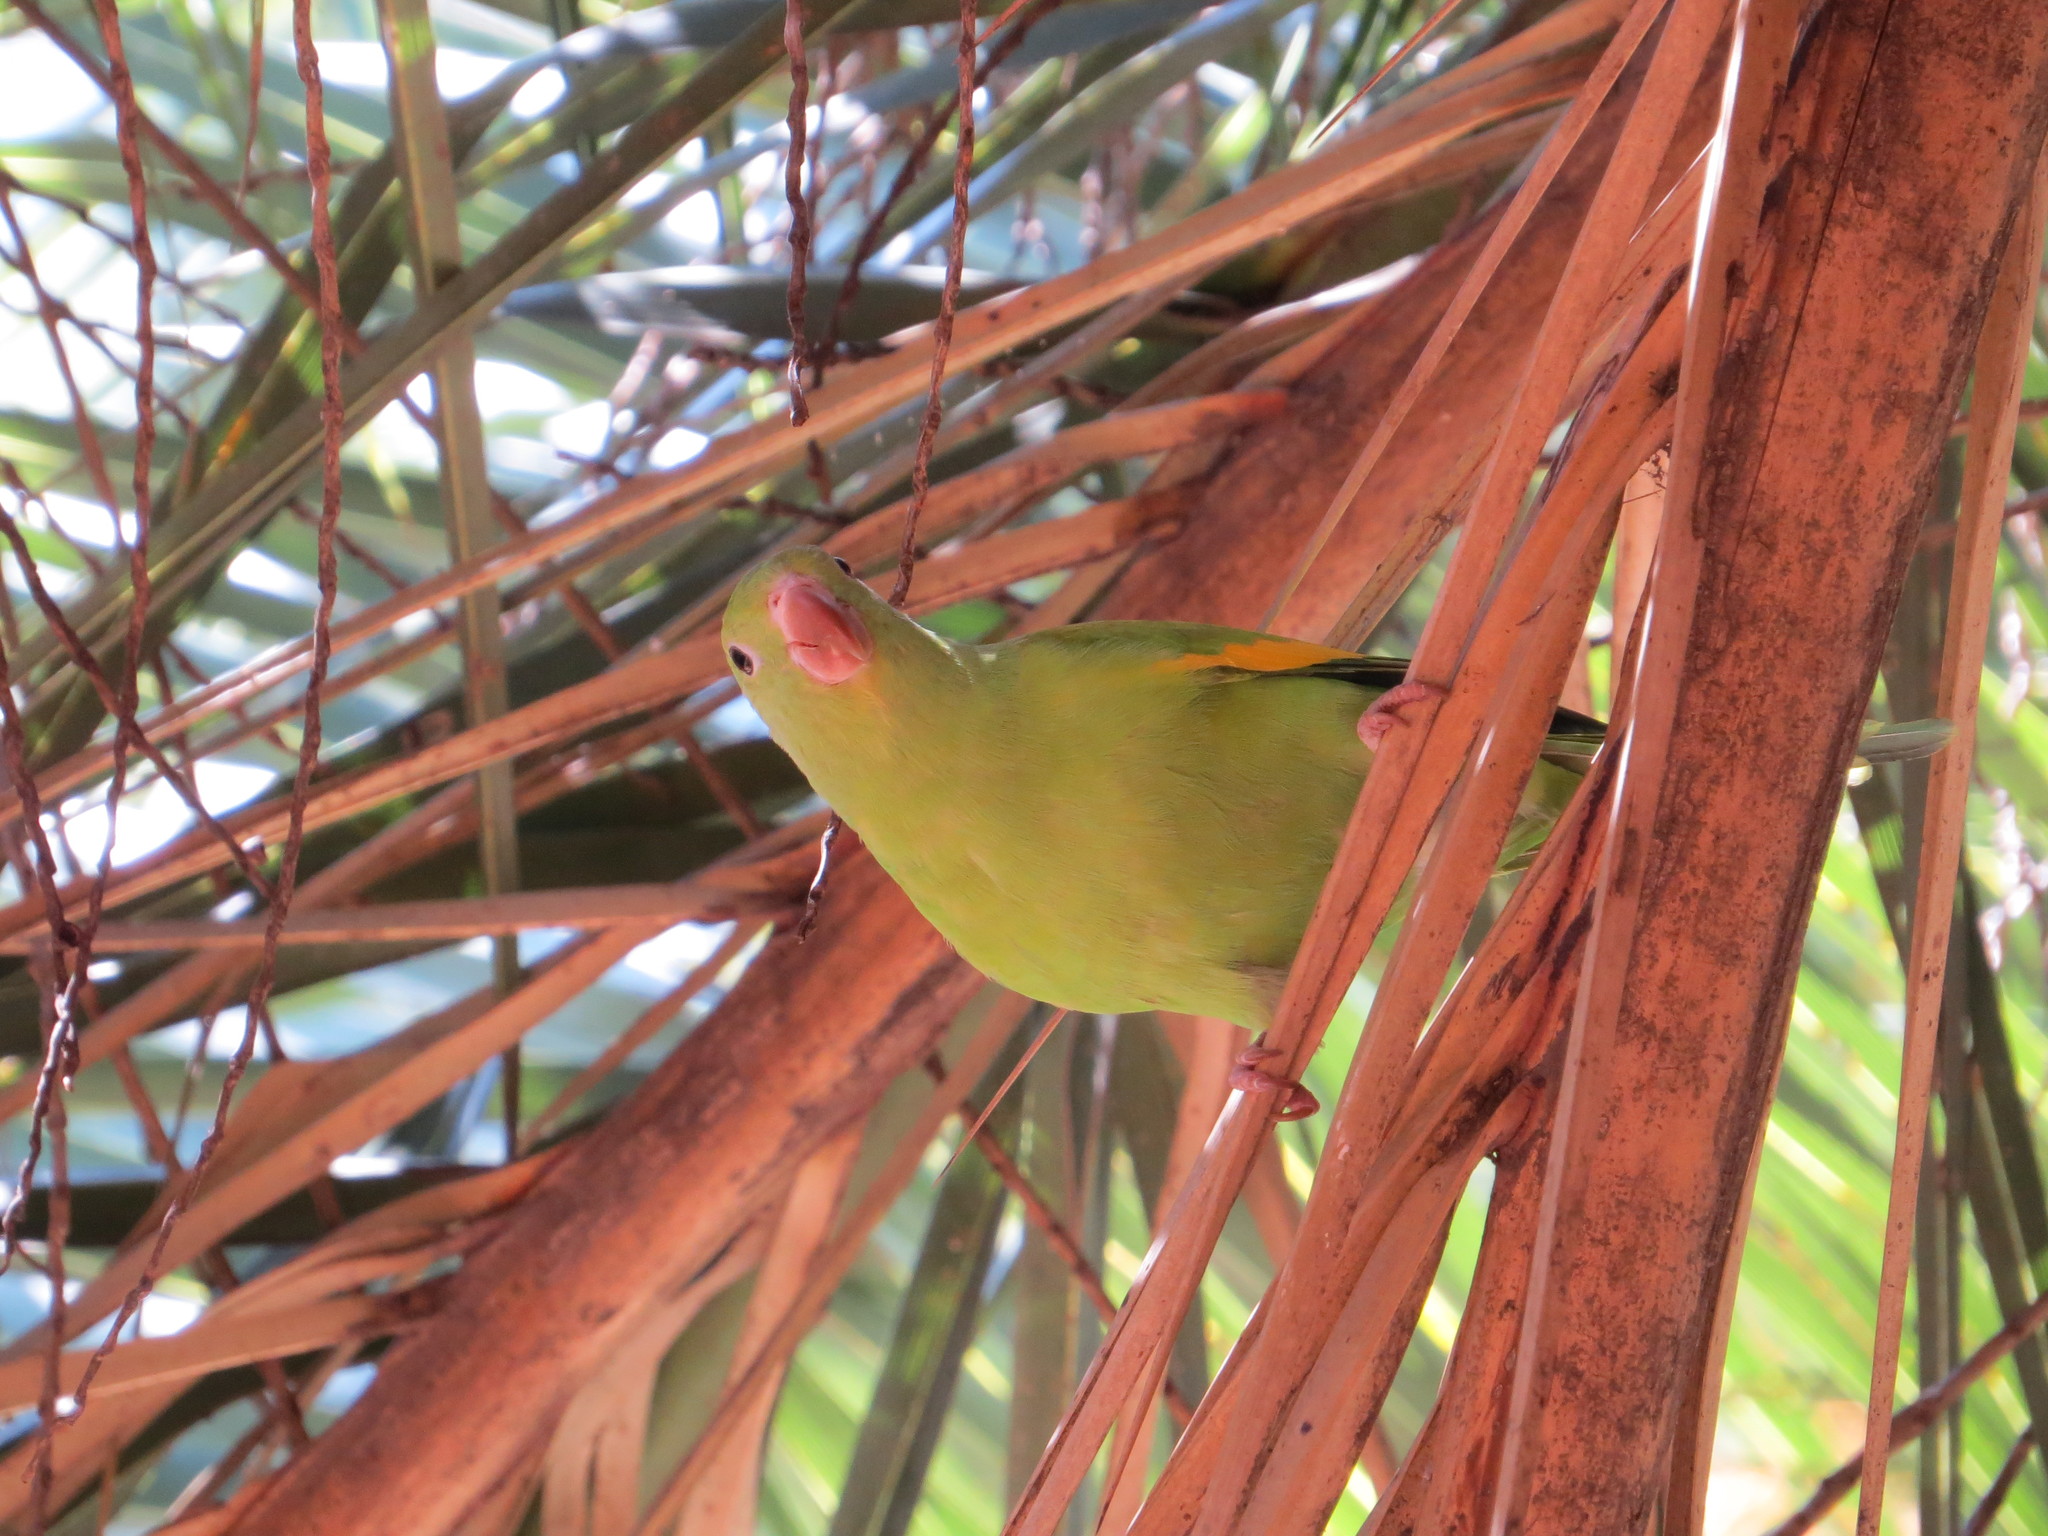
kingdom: Animalia
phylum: Chordata
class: Aves
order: Psittaciformes
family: Psittacidae
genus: Brotogeris
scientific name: Brotogeris chiriri
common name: Yellow-chevroned parakeet
